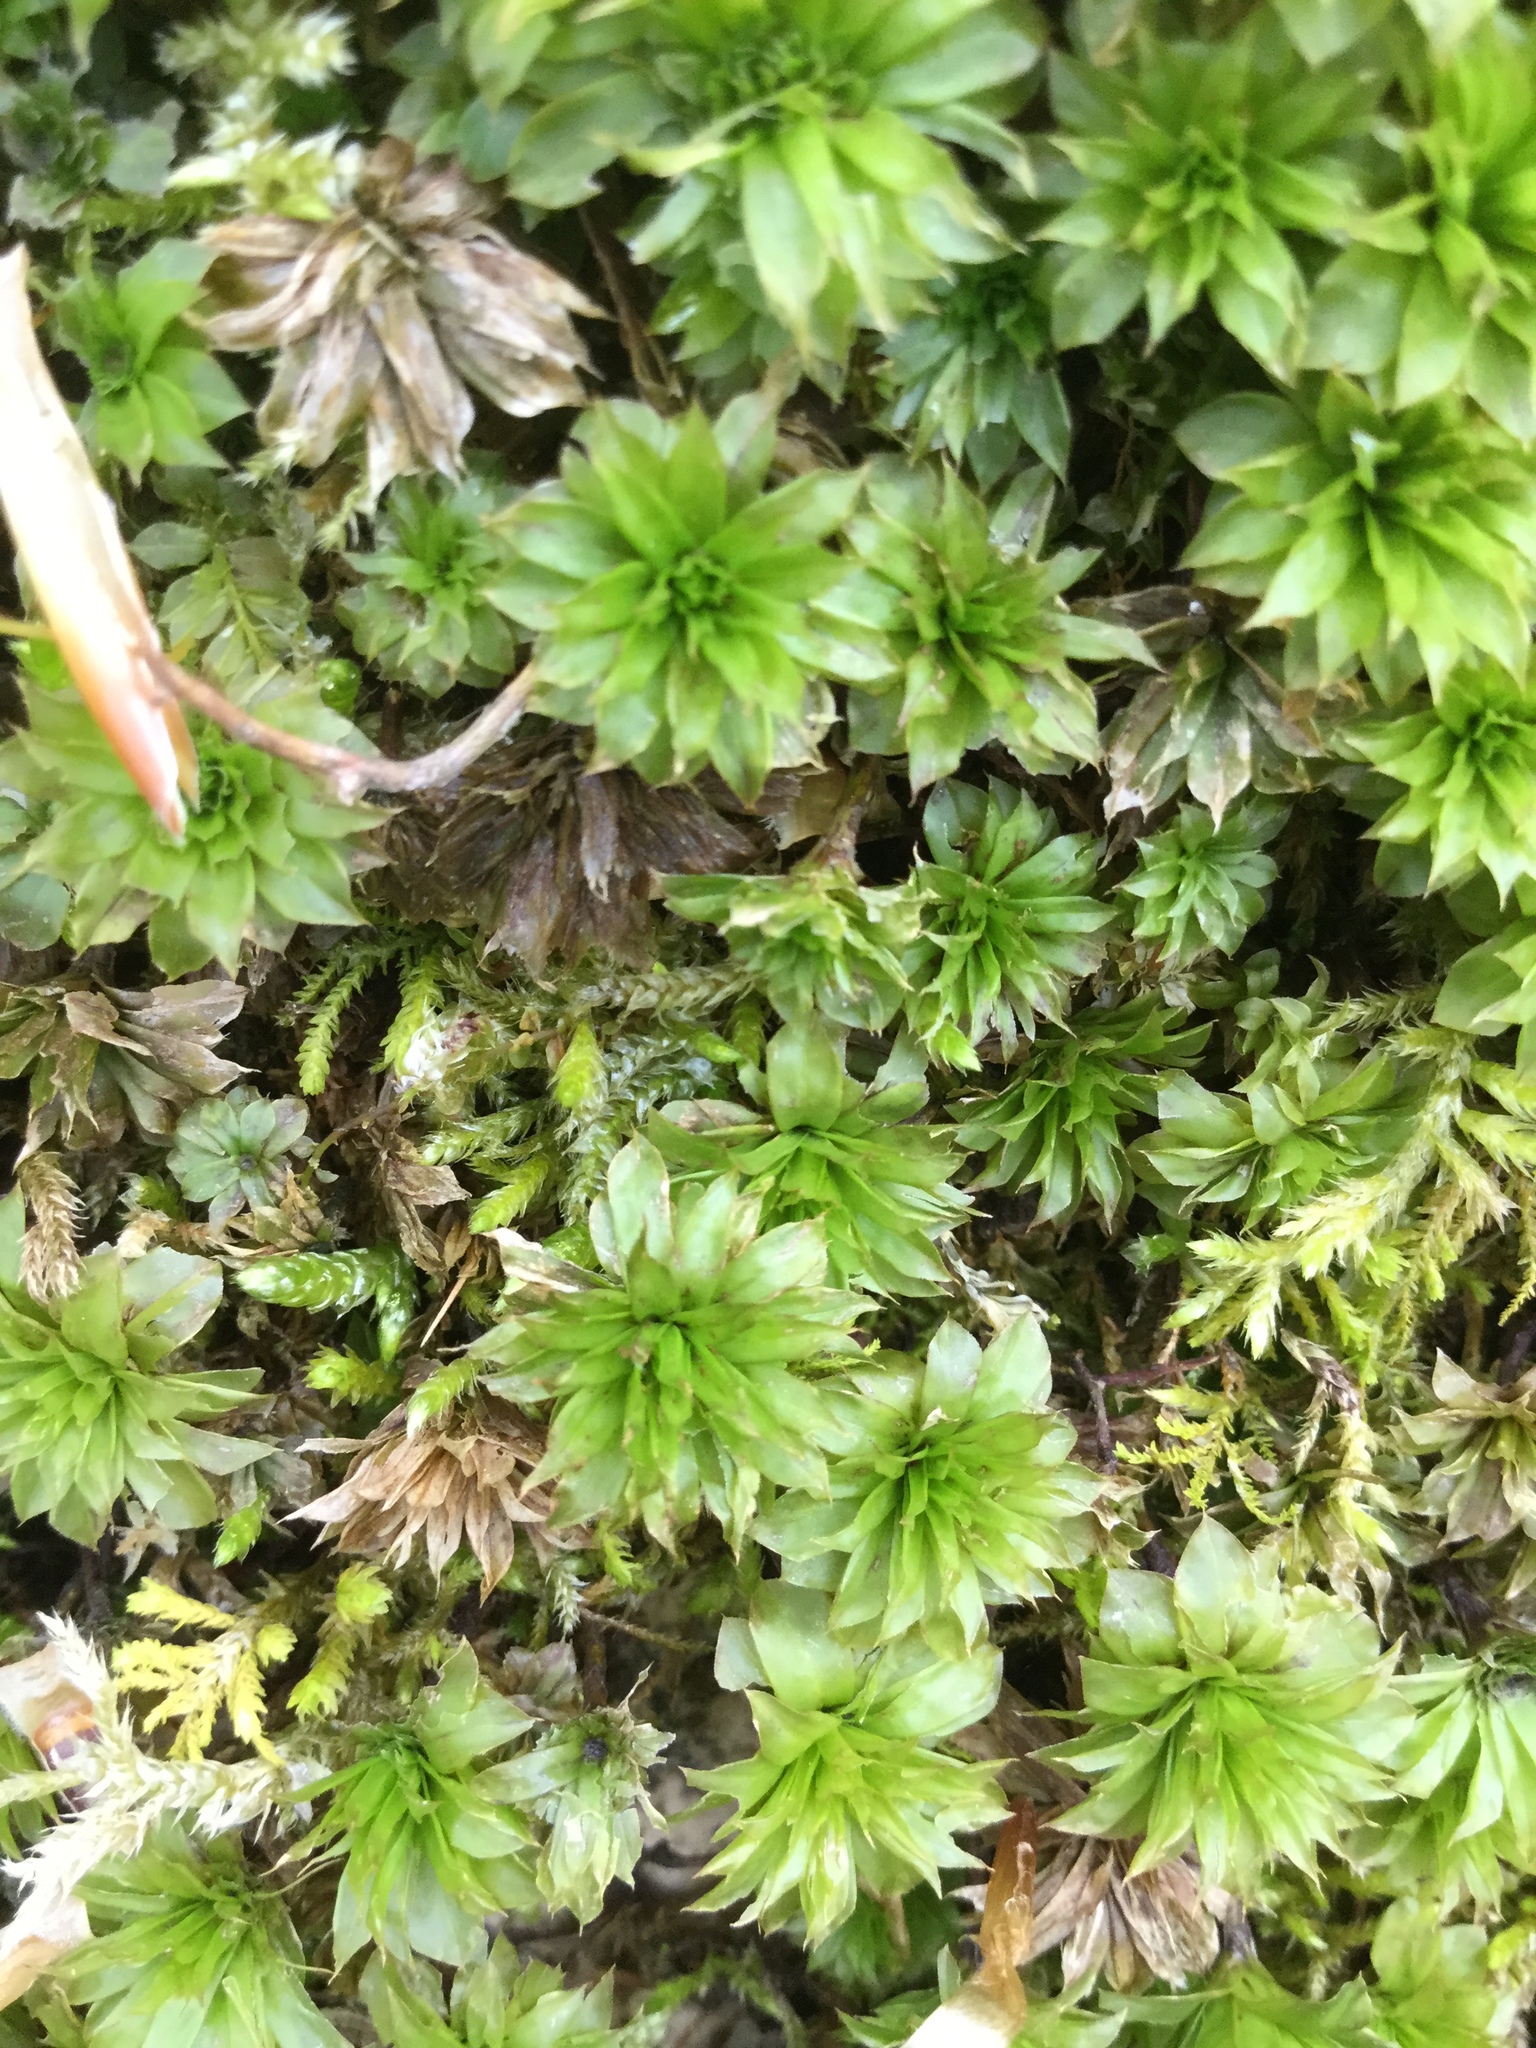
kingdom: Plantae
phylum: Bryophyta
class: Bryopsida
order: Bryales
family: Bryaceae
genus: Rhodobryum
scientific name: Rhodobryum ontariense
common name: Ontario rhodobryum moss
